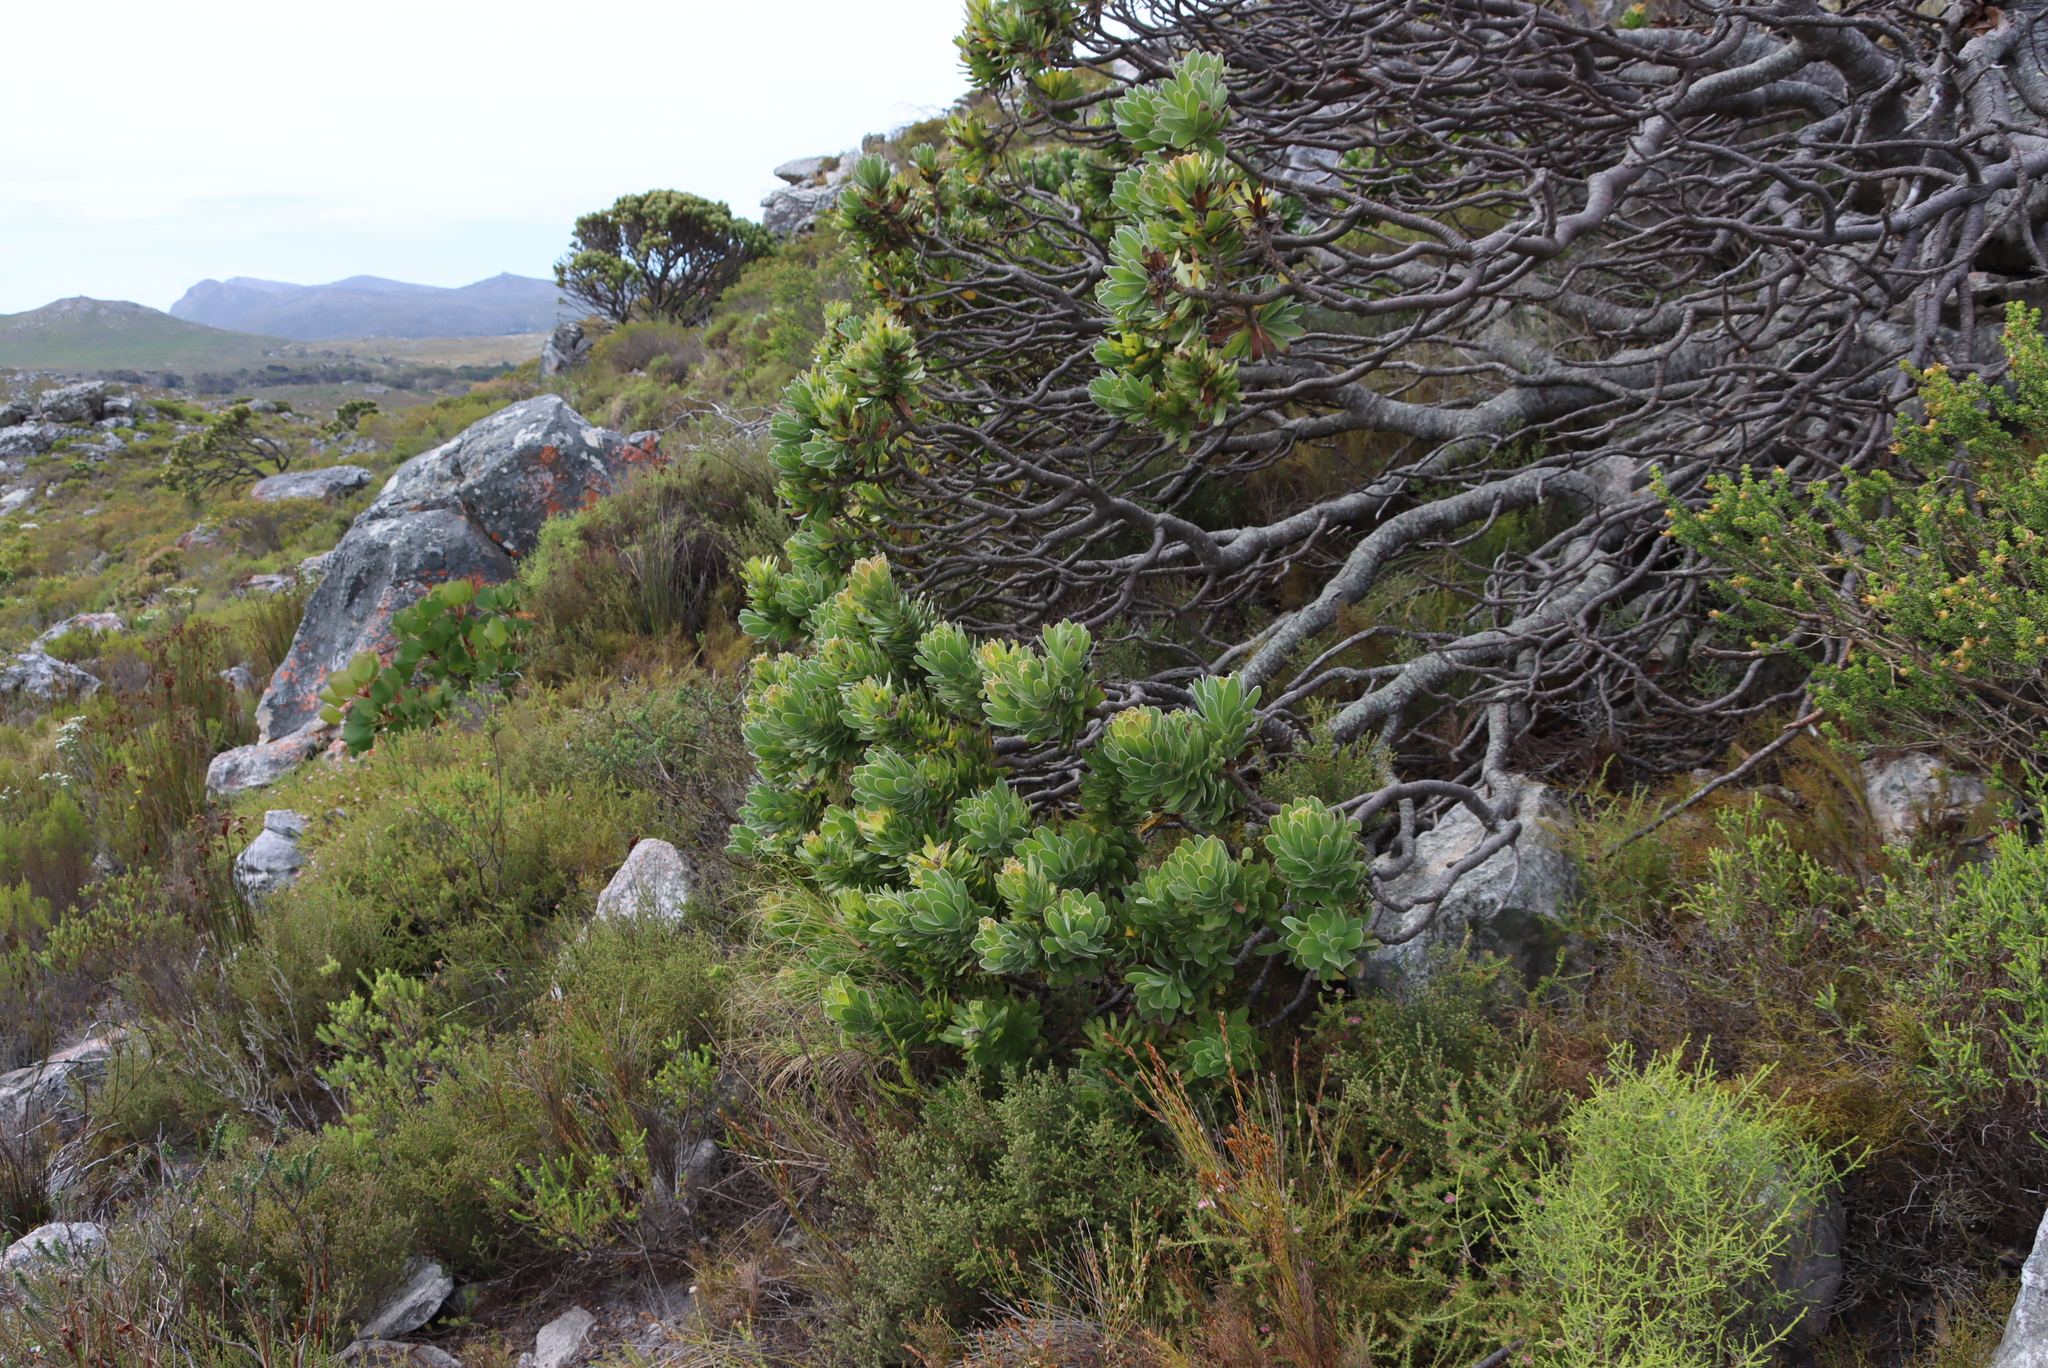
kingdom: Plantae
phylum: Tracheophyta
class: Magnoliopsida
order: Proteales
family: Proteaceae
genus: Mimetes
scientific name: Mimetes fimbriifolius
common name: Fringed bottlebrush
